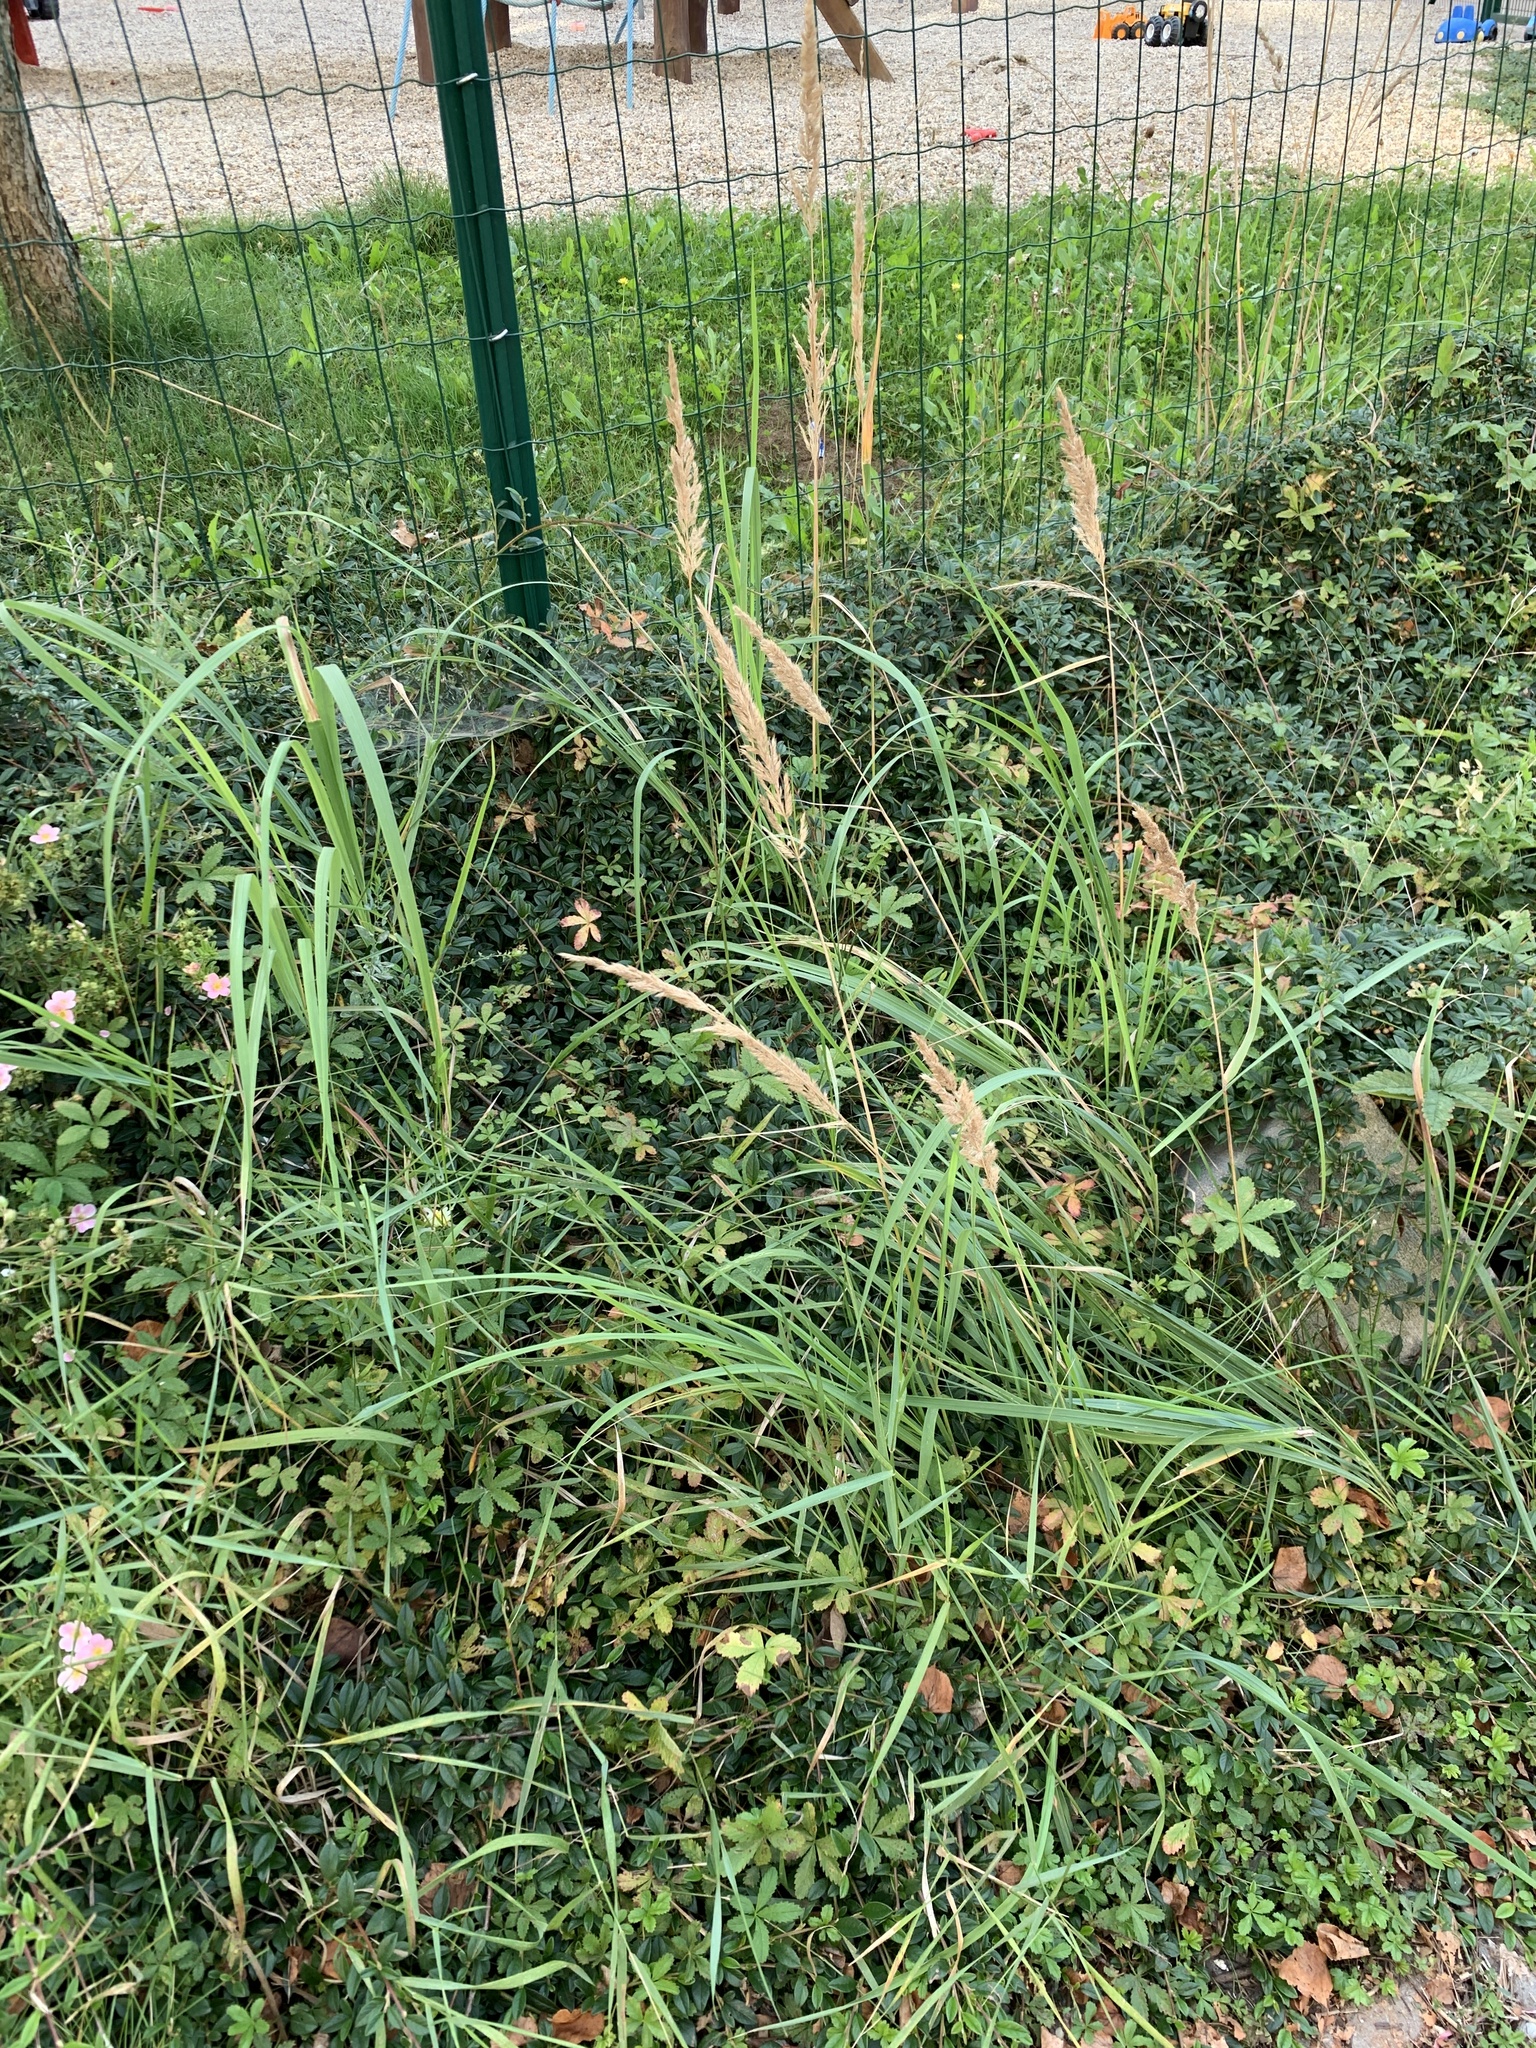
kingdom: Plantae
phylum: Tracheophyta
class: Liliopsida
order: Poales
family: Poaceae
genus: Calamagrostis
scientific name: Calamagrostis epigejos
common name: Wood small-reed
